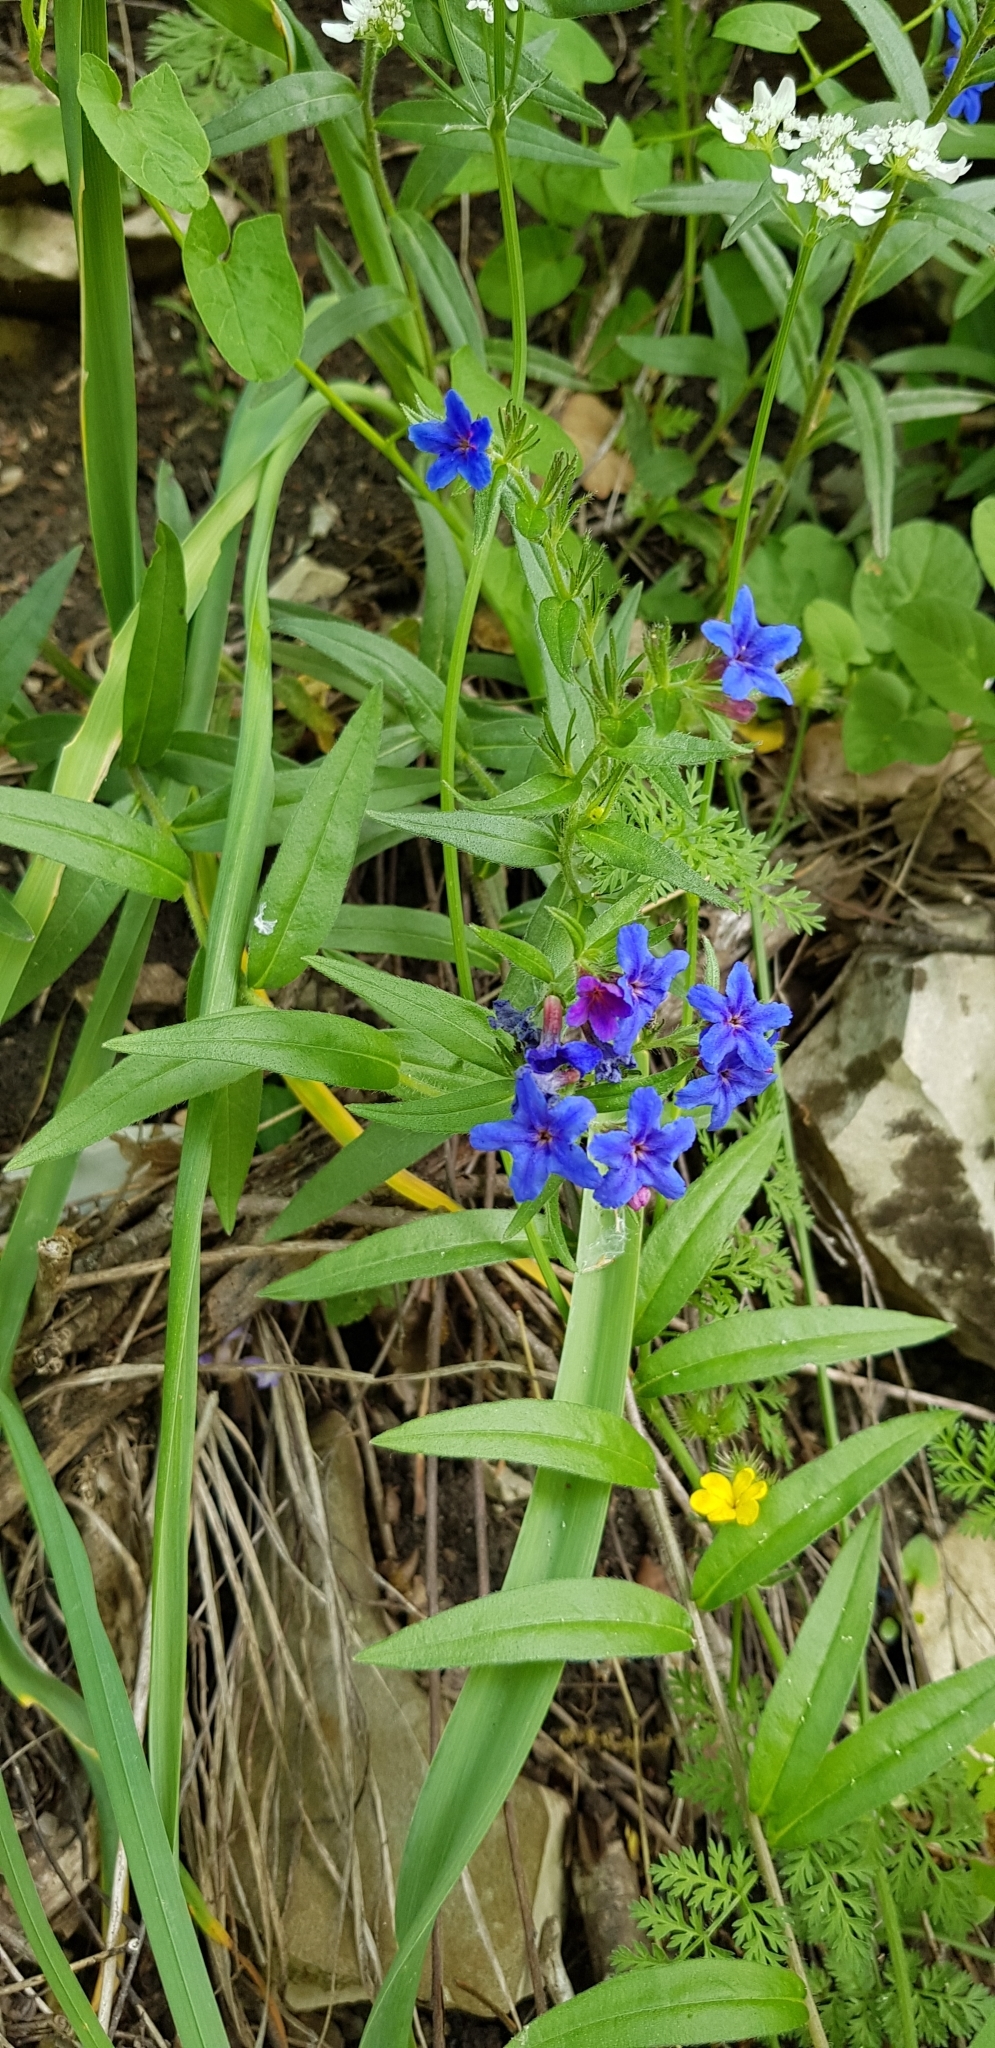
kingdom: Plantae
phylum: Tracheophyta
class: Magnoliopsida
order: Boraginales
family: Boraginaceae
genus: Aegonychon
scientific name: Aegonychon purpurocaeruleum
